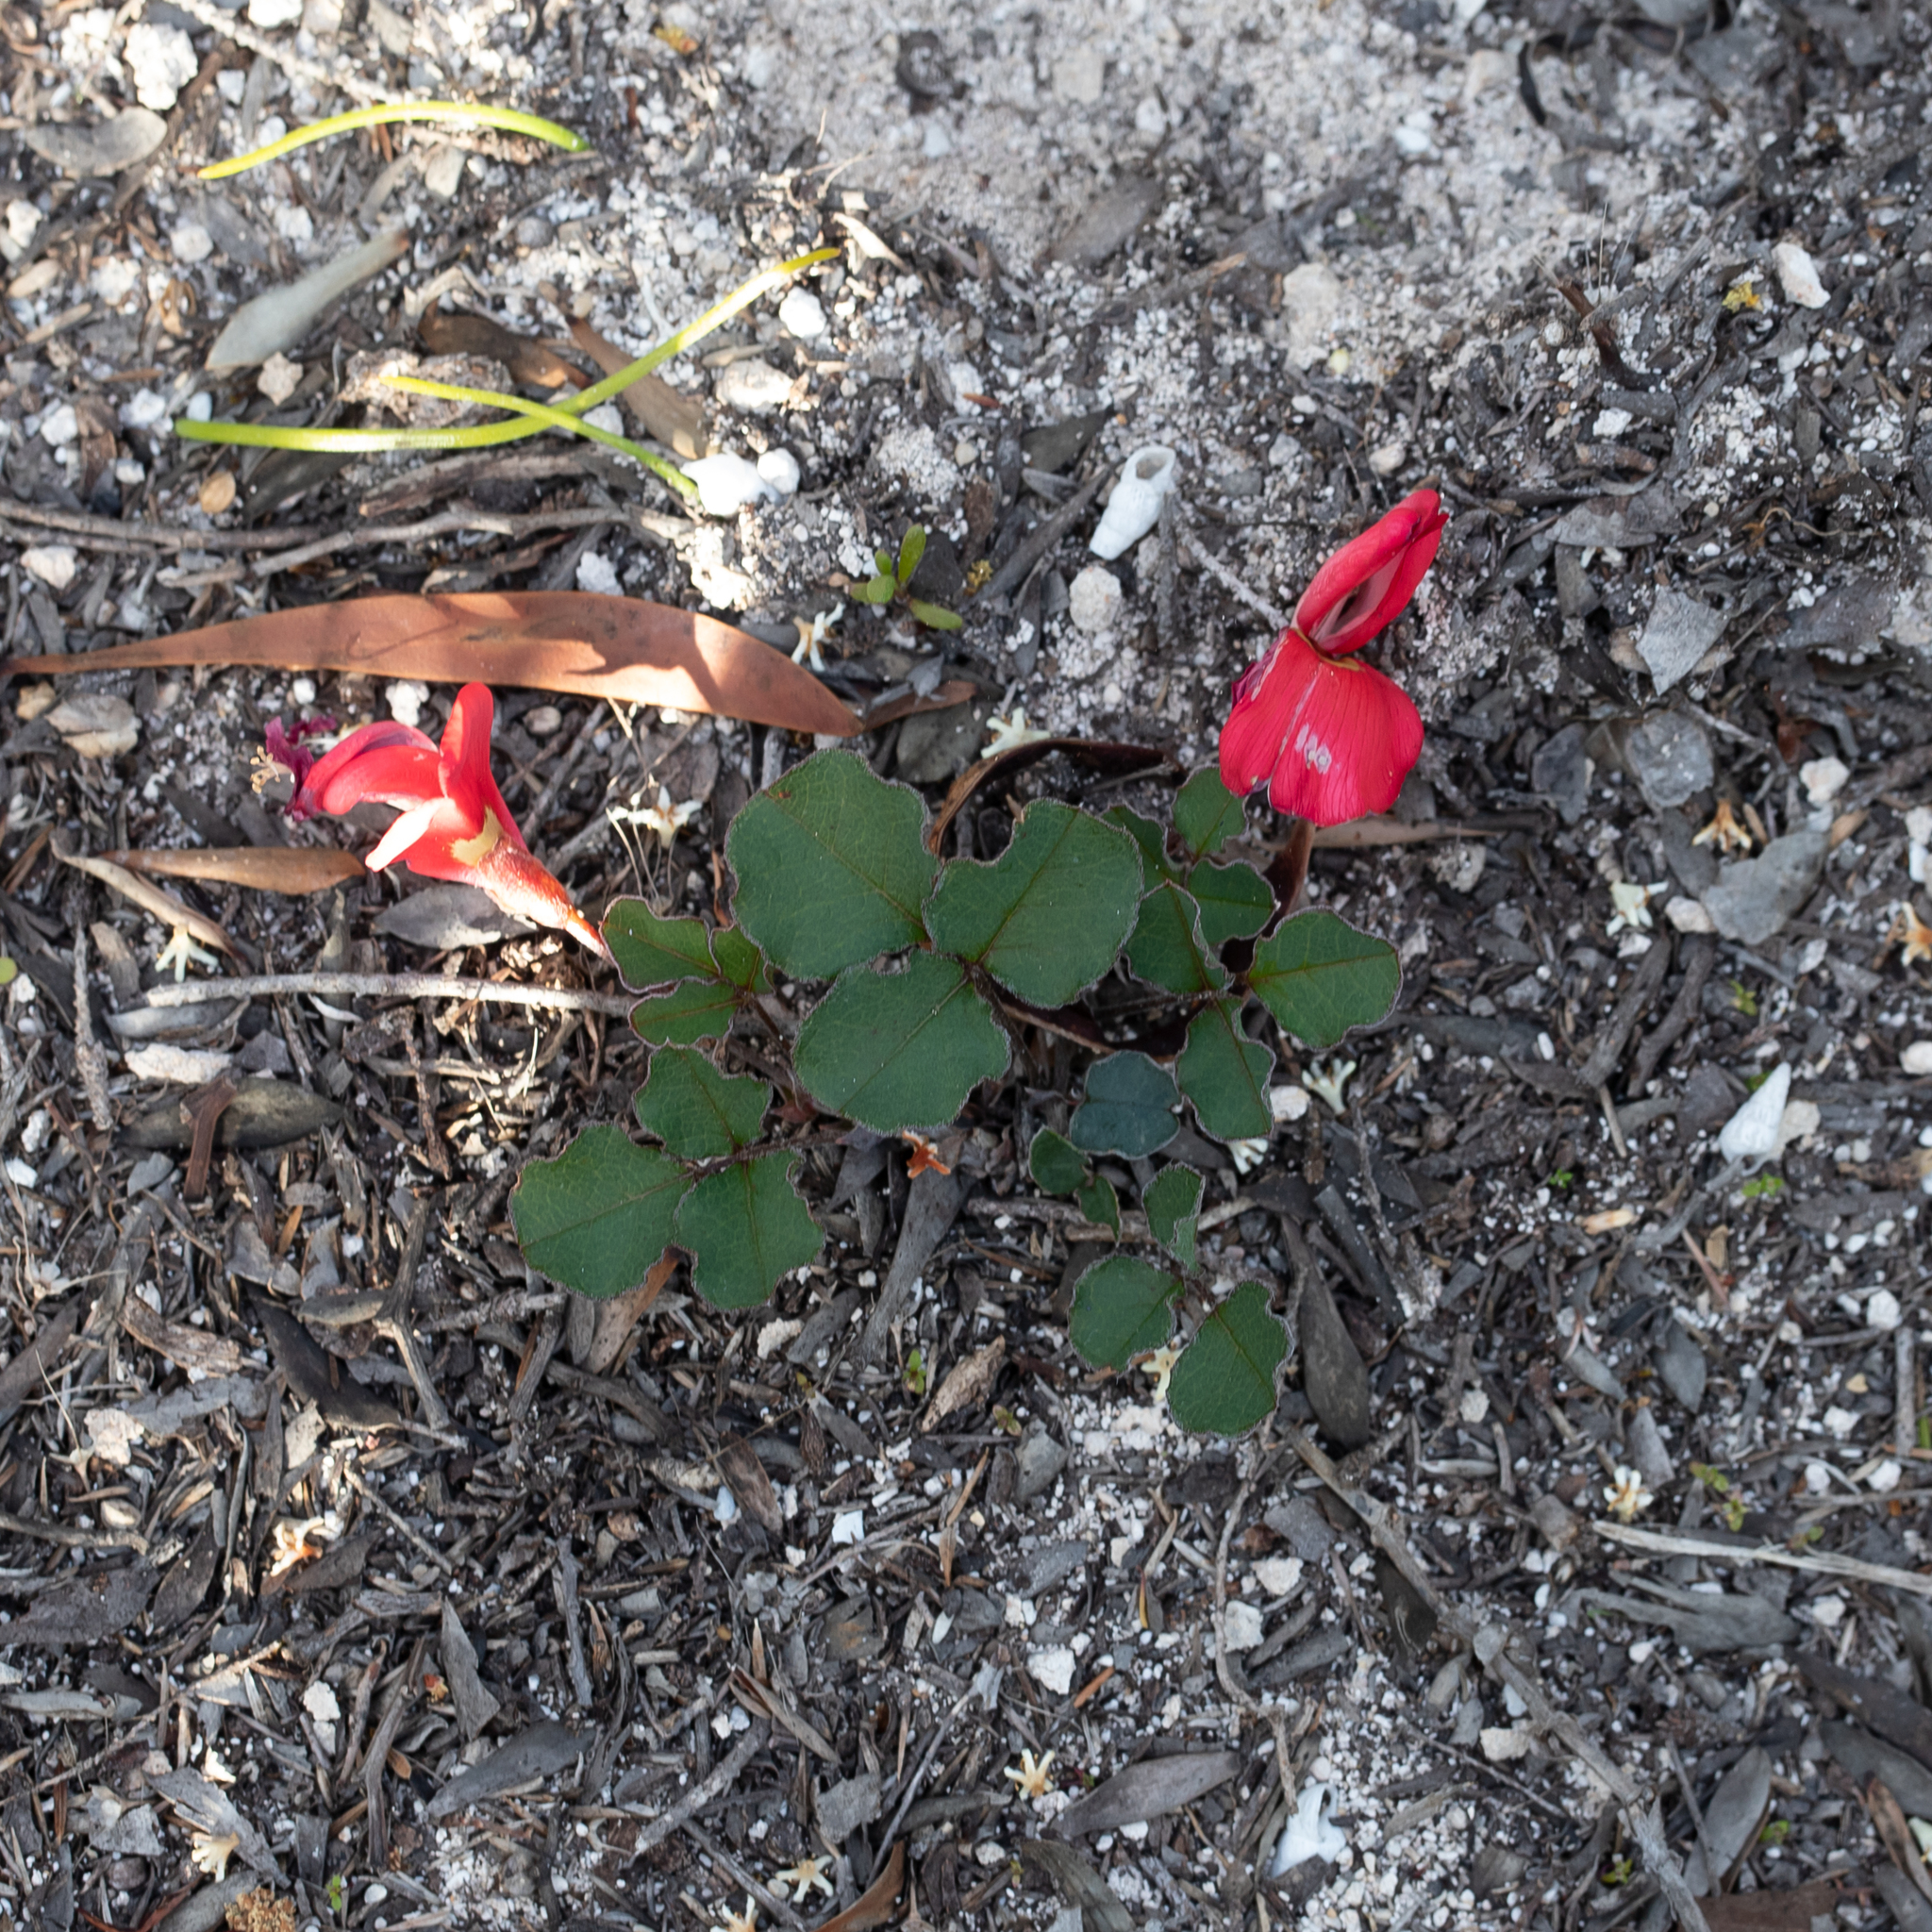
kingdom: Plantae
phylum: Tracheophyta
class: Magnoliopsida
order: Fabales
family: Fabaceae
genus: Kennedia
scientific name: Kennedia prostrata
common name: Running-postman
